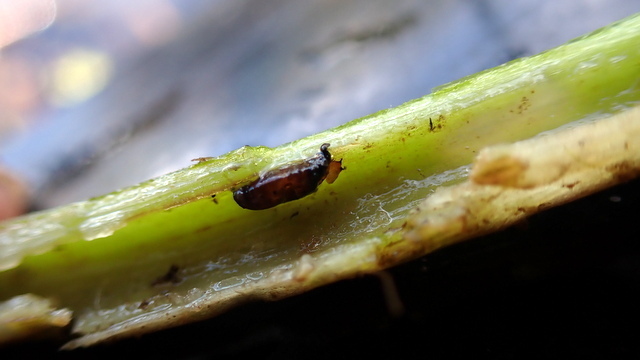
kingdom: Animalia
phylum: Arthropoda
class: Insecta
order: Coleoptera
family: Chrysomelidae
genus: Agasicles
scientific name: Agasicles hygrophila
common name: Alligatorweed flea beetle
